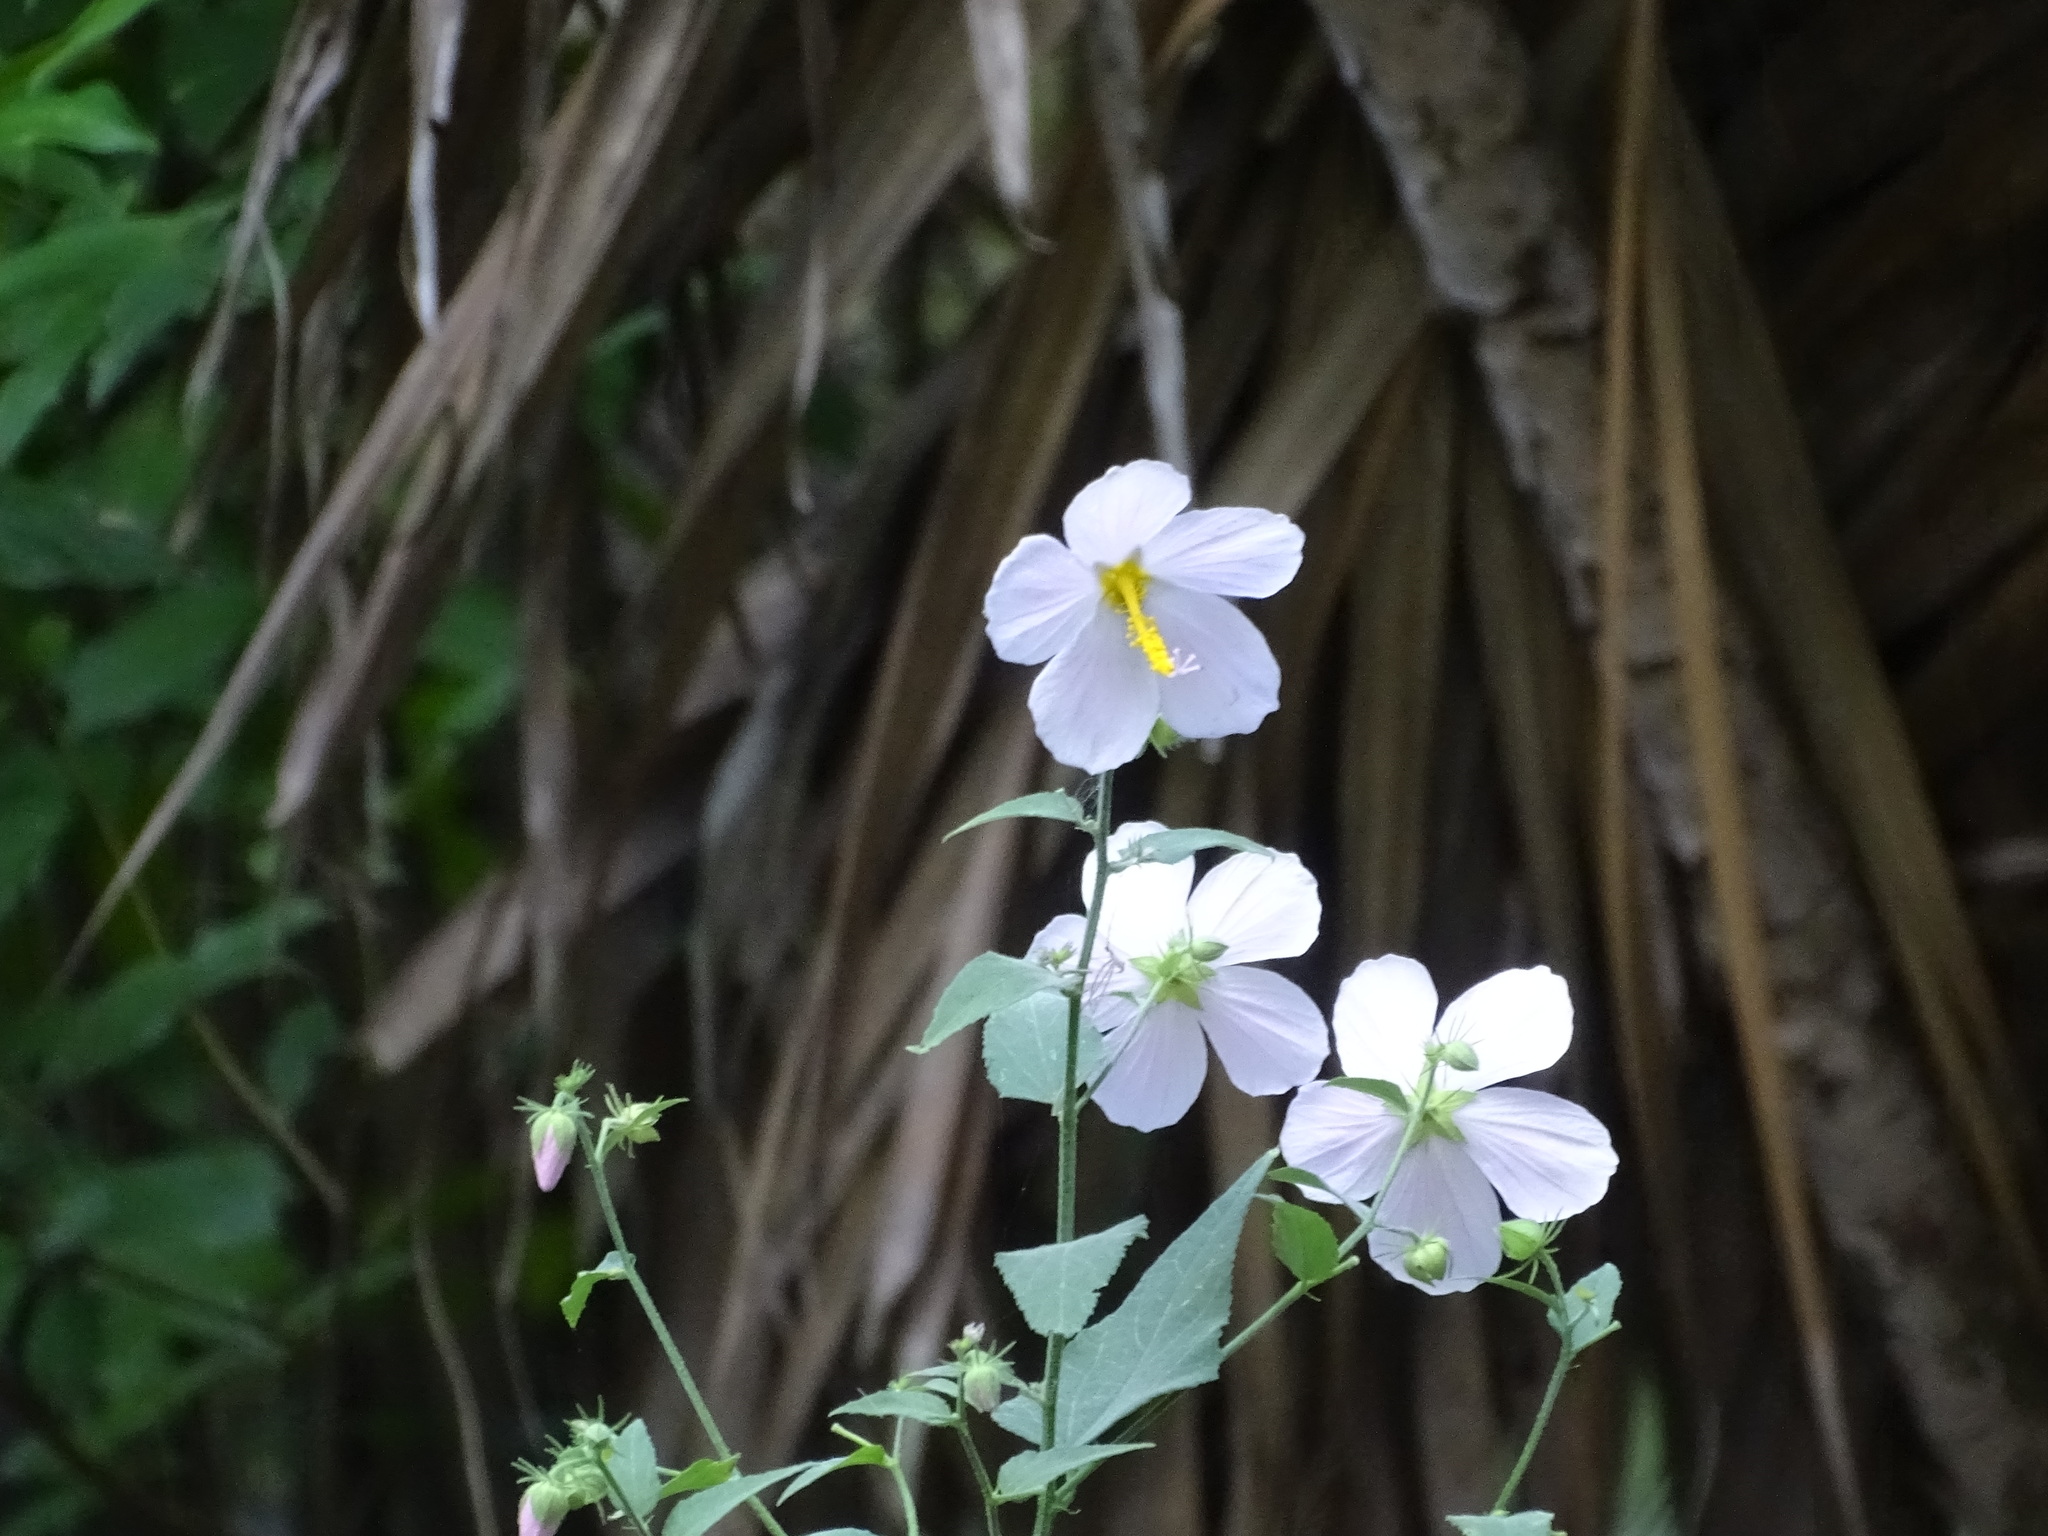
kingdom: Plantae
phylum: Tracheophyta
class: Magnoliopsida
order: Malvales
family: Malvaceae
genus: Kosteletzkya
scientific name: Kosteletzkya pentacarpos
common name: Virginia saltmarsh mallow
